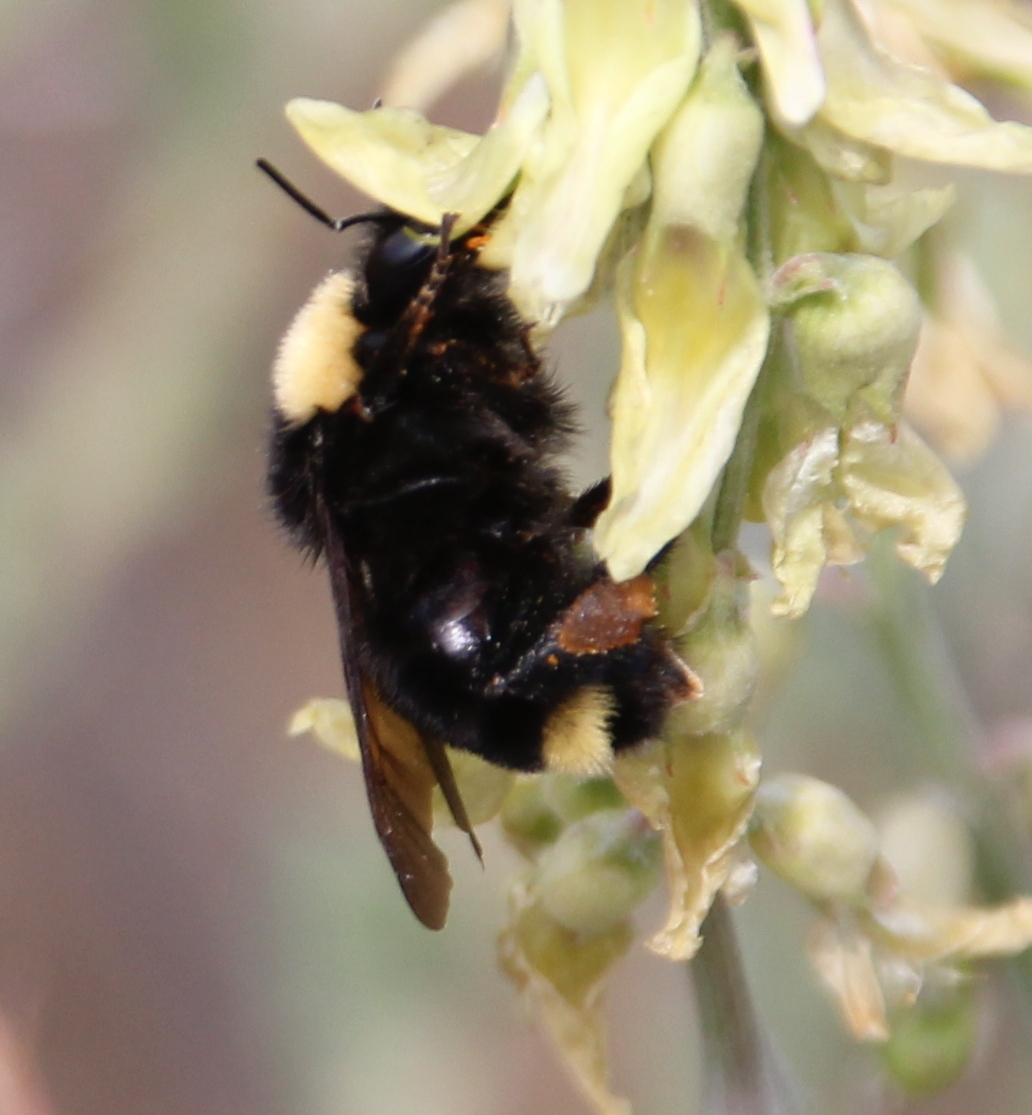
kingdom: Animalia
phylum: Arthropoda
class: Insecta
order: Hymenoptera
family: Apidae
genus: Bombus
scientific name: Bombus californicus
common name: California bumble bee
